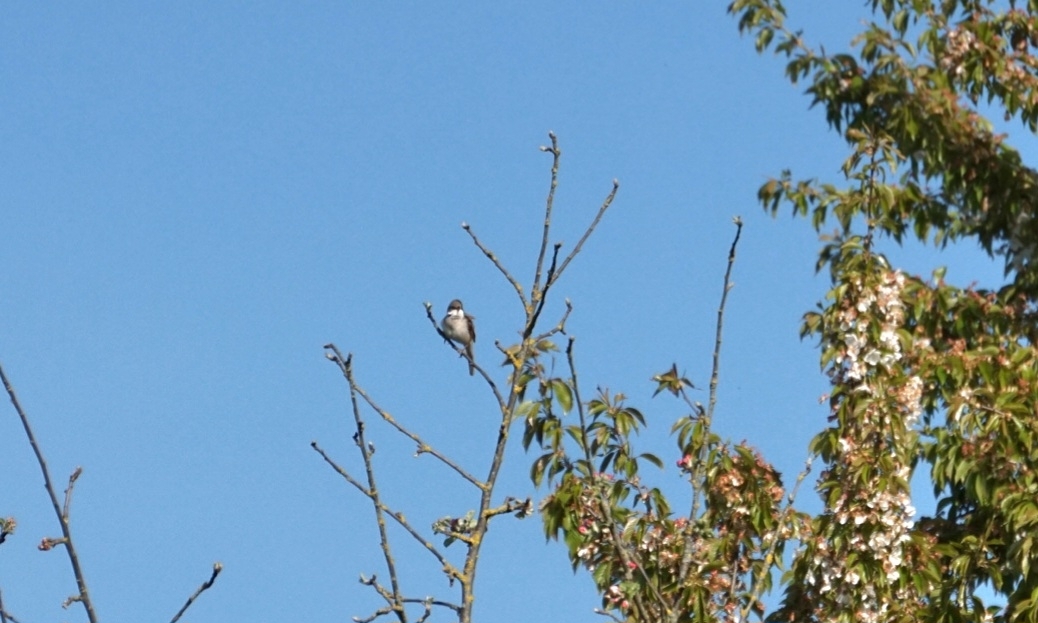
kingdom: Animalia
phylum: Chordata
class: Aves
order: Passeriformes
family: Sylviidae
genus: Sylvia
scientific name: Sylvia communis
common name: Common whitethroat
